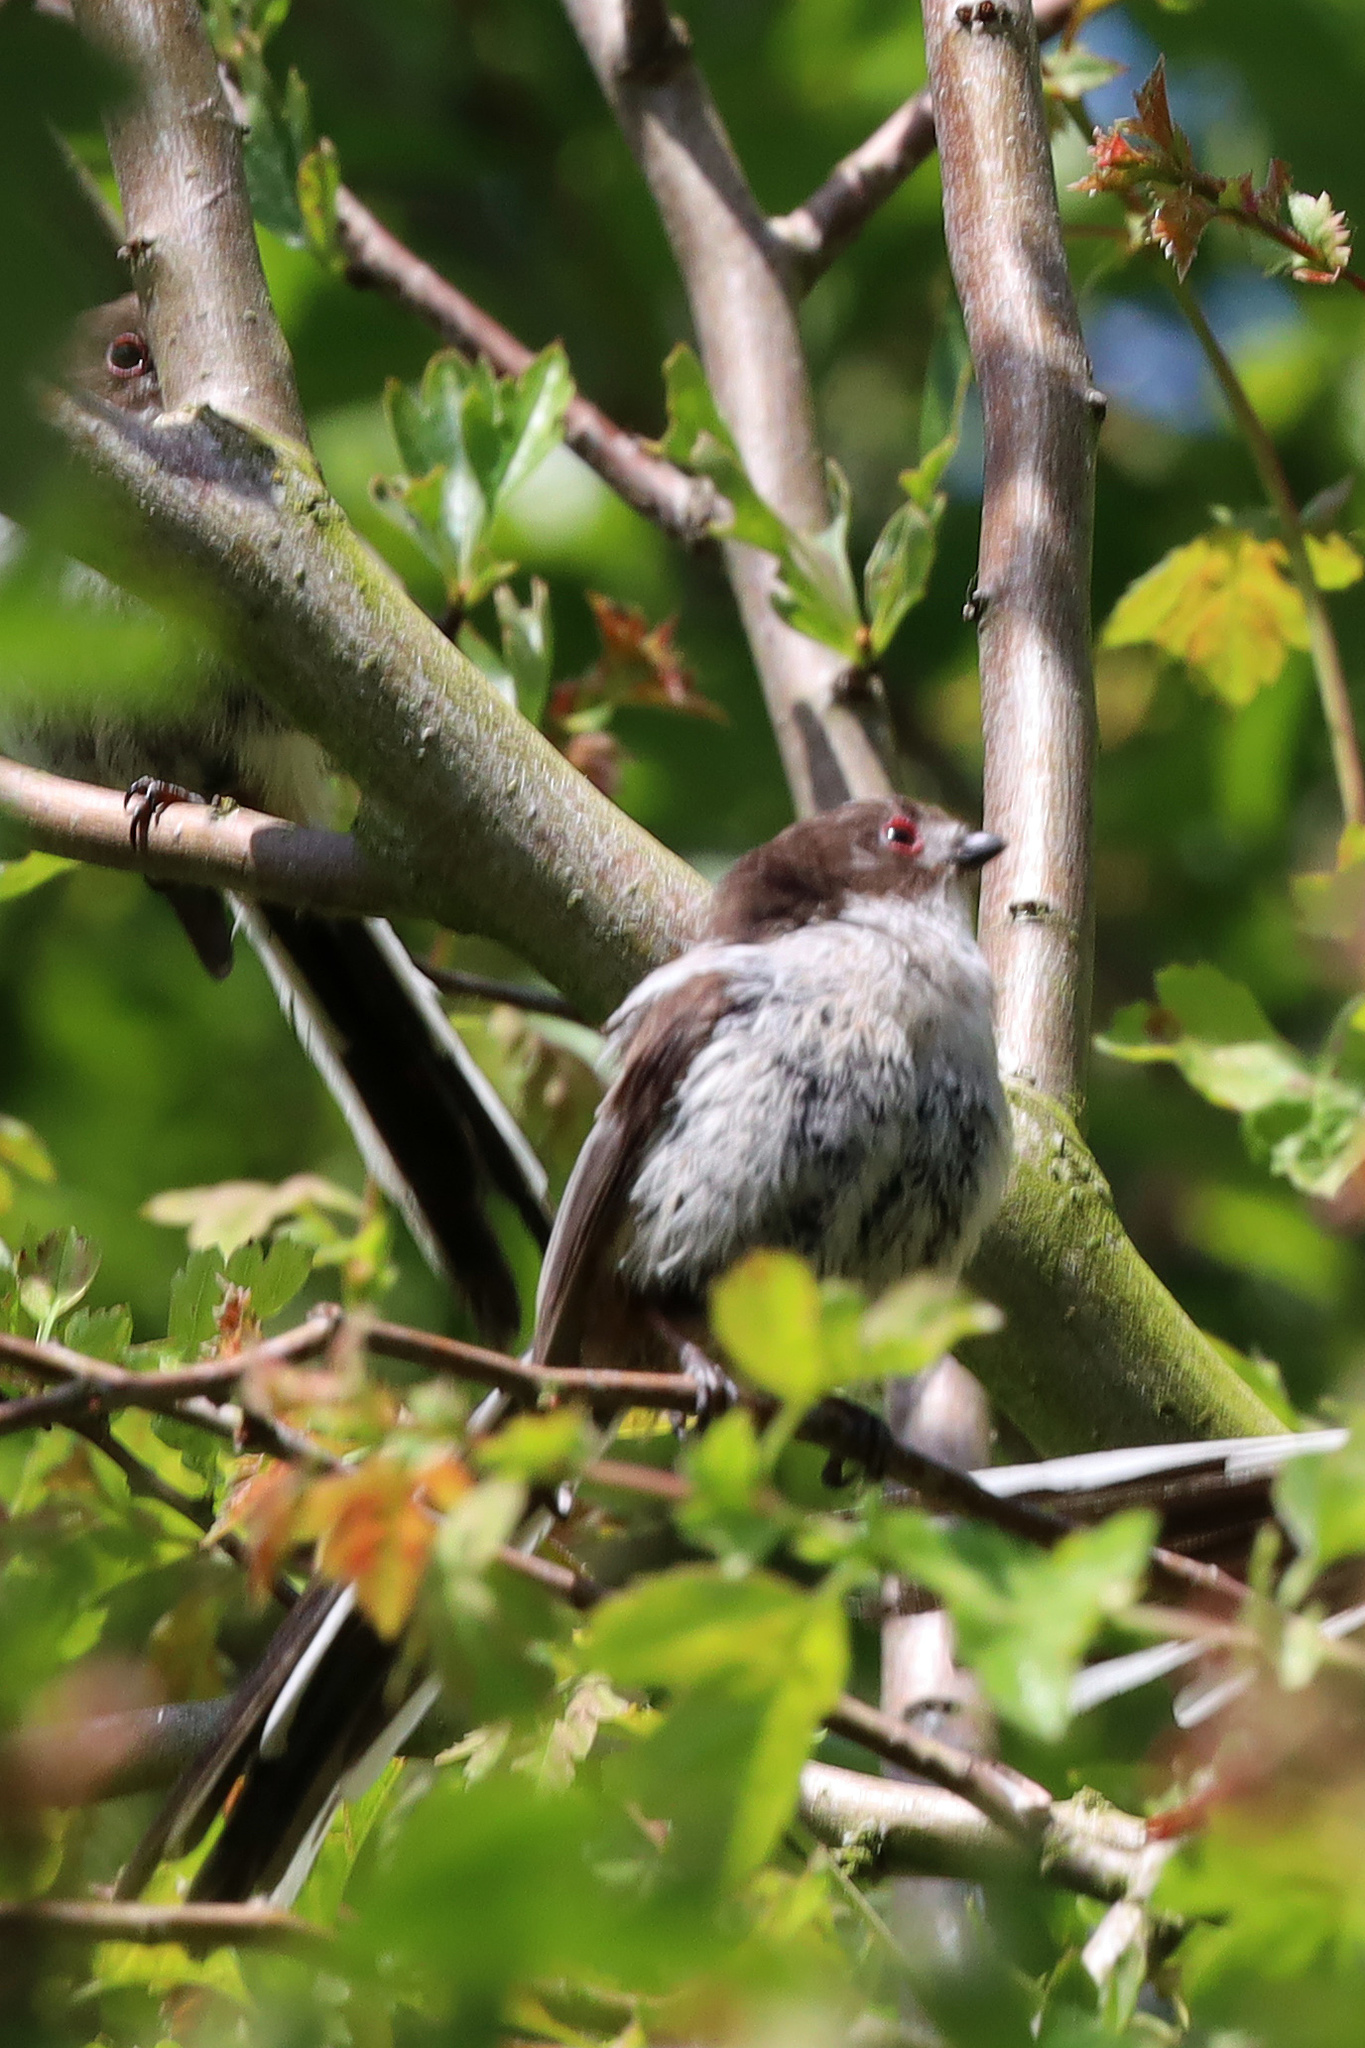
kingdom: Animalia
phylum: Chordata
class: Aves
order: Passeriformes
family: Aegithalidae
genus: Aegithalos
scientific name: Aegithalos caudatus
